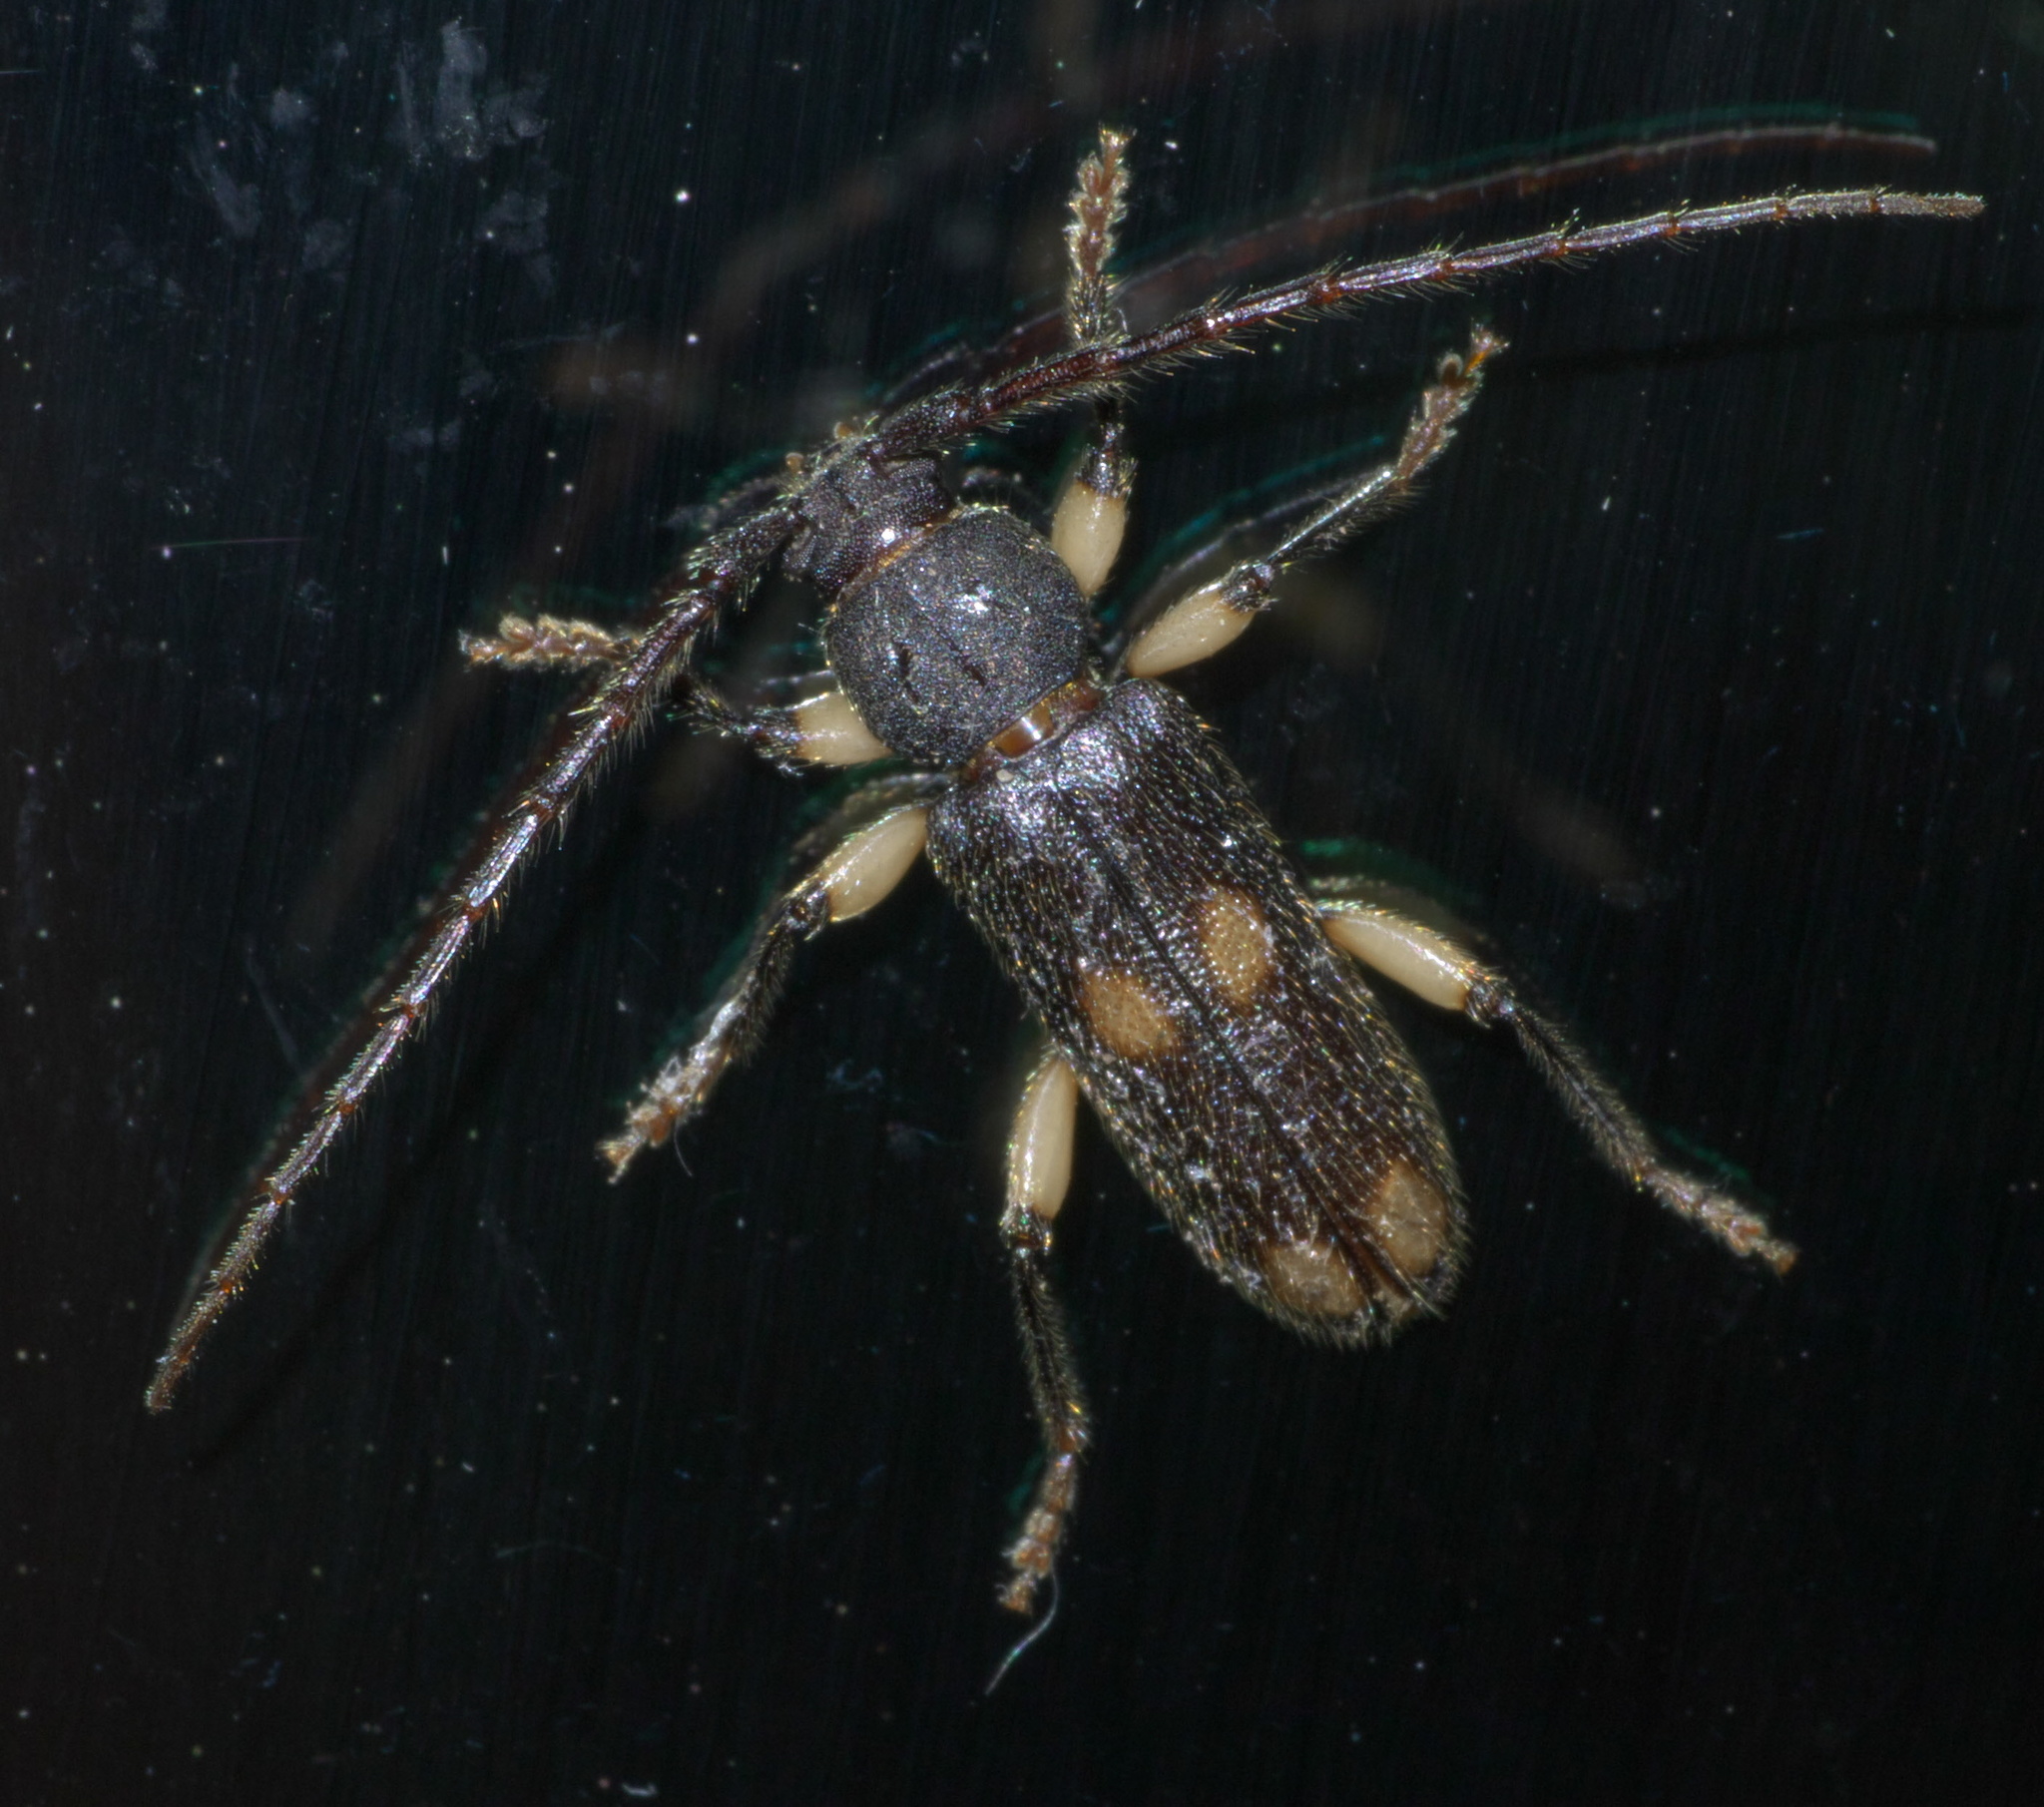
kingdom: Animalia
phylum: Arthropoda
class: Insecta
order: Coleoptera
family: Cerambycidae
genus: Tylonotus
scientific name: Tylonotus bimaculatus
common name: Ash and privet borer
